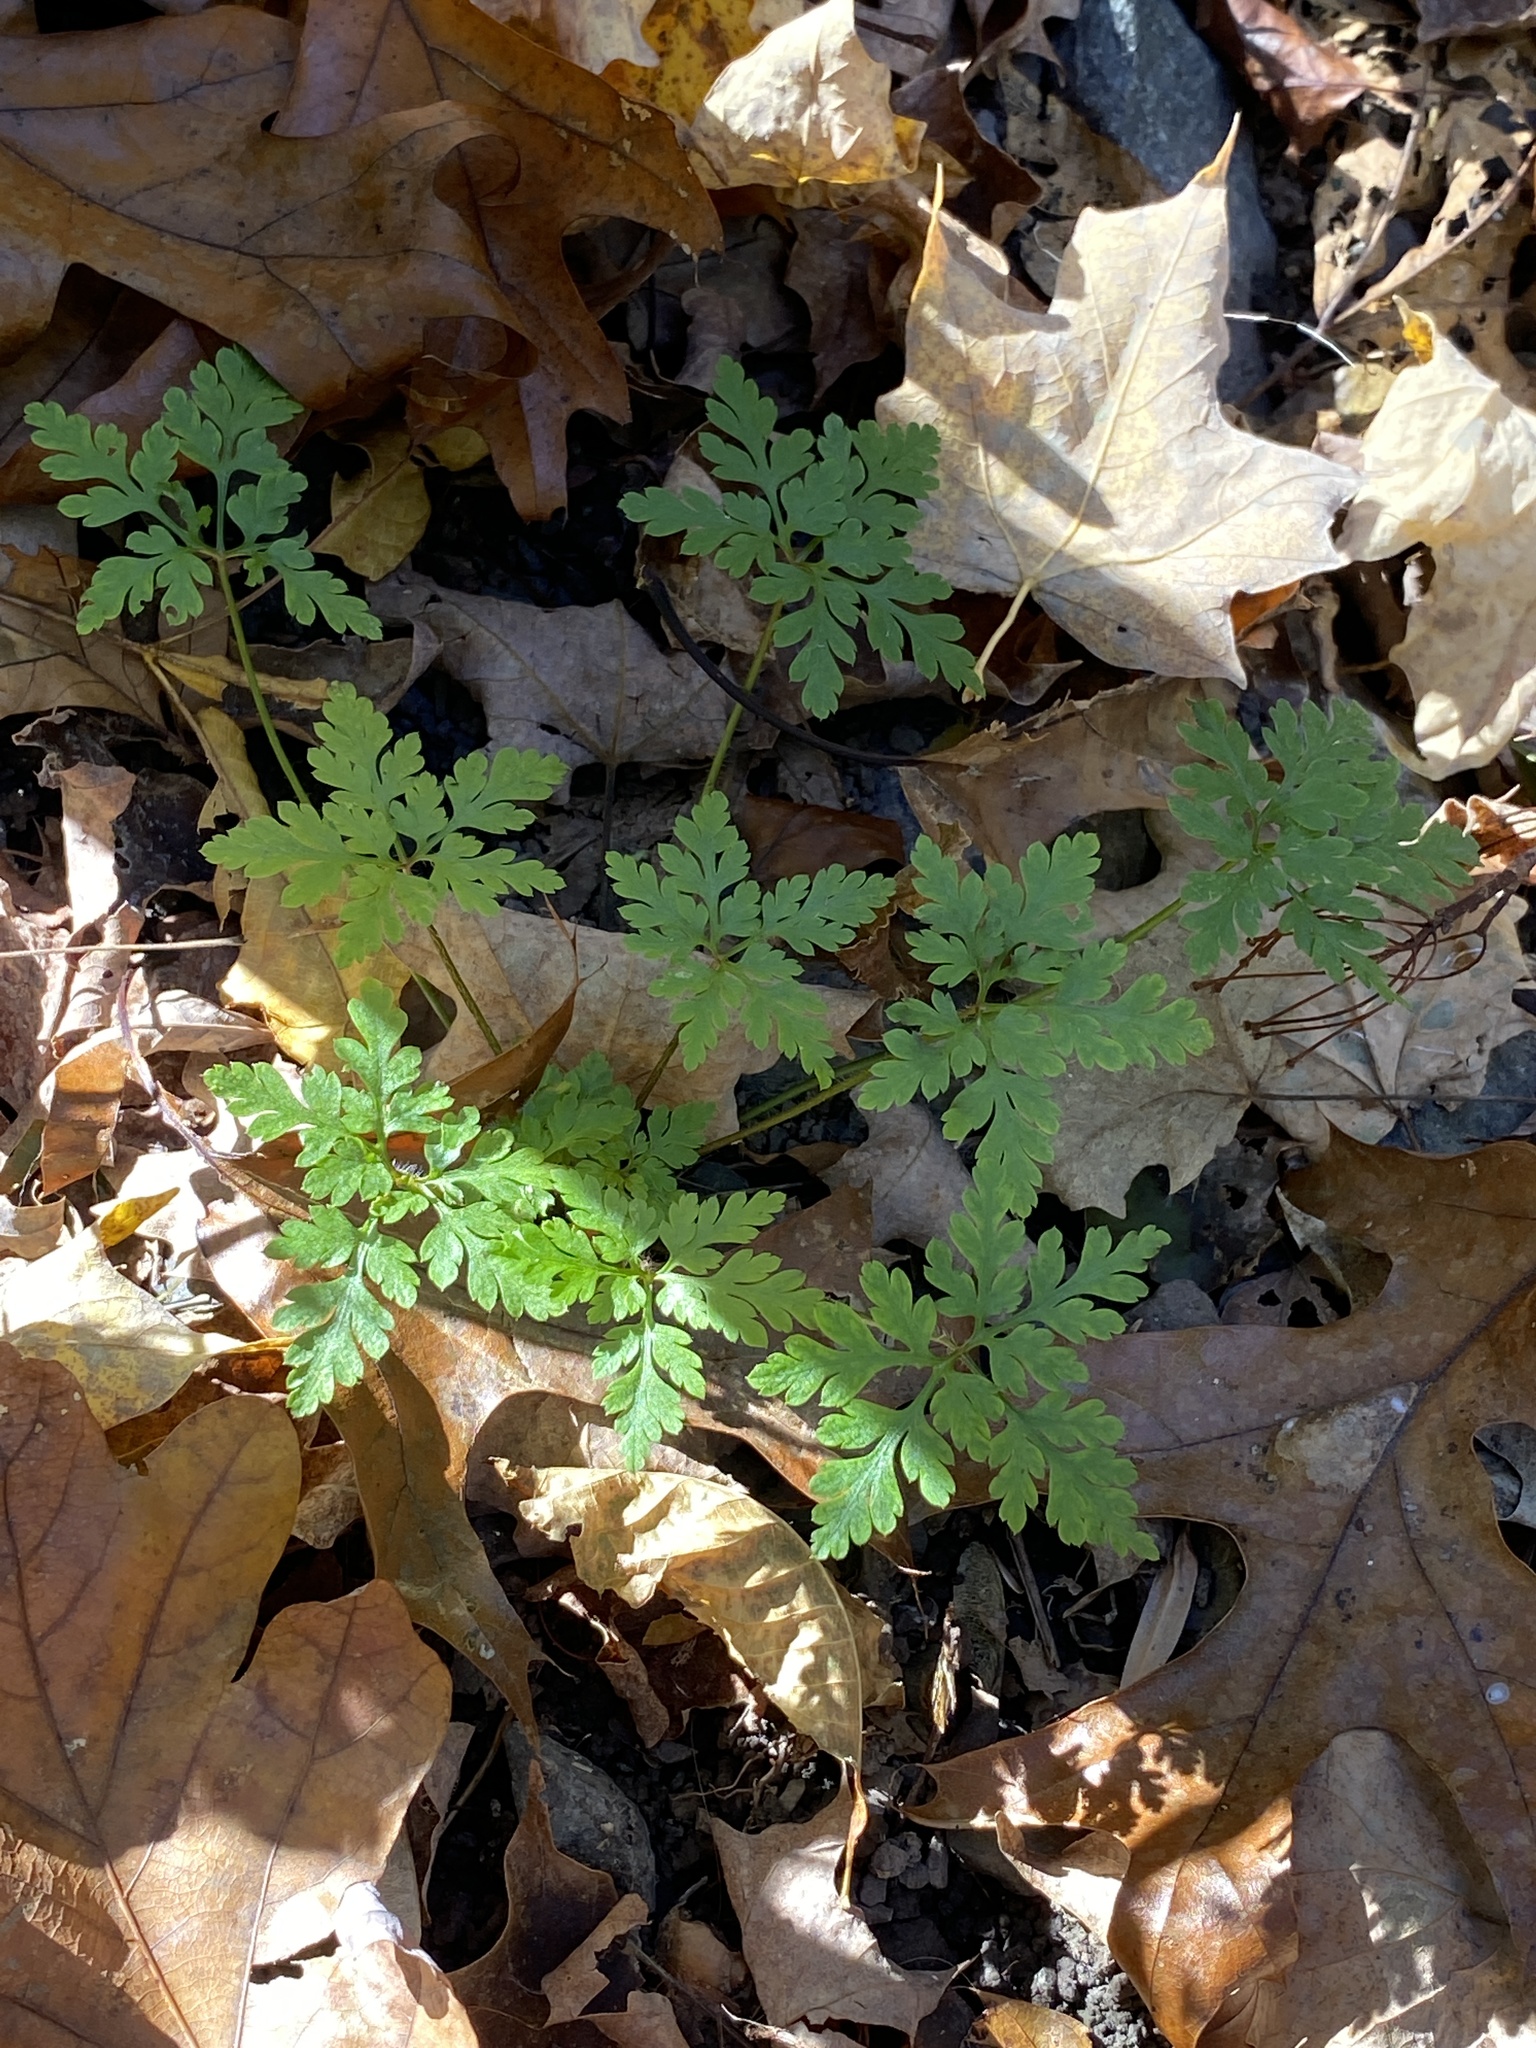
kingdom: Plantae
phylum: Tracheophyta
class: Magnoliopsida
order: Geraniales
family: Geraniaceae
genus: Geranium
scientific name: Geranium robertianum
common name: Herb-robert
